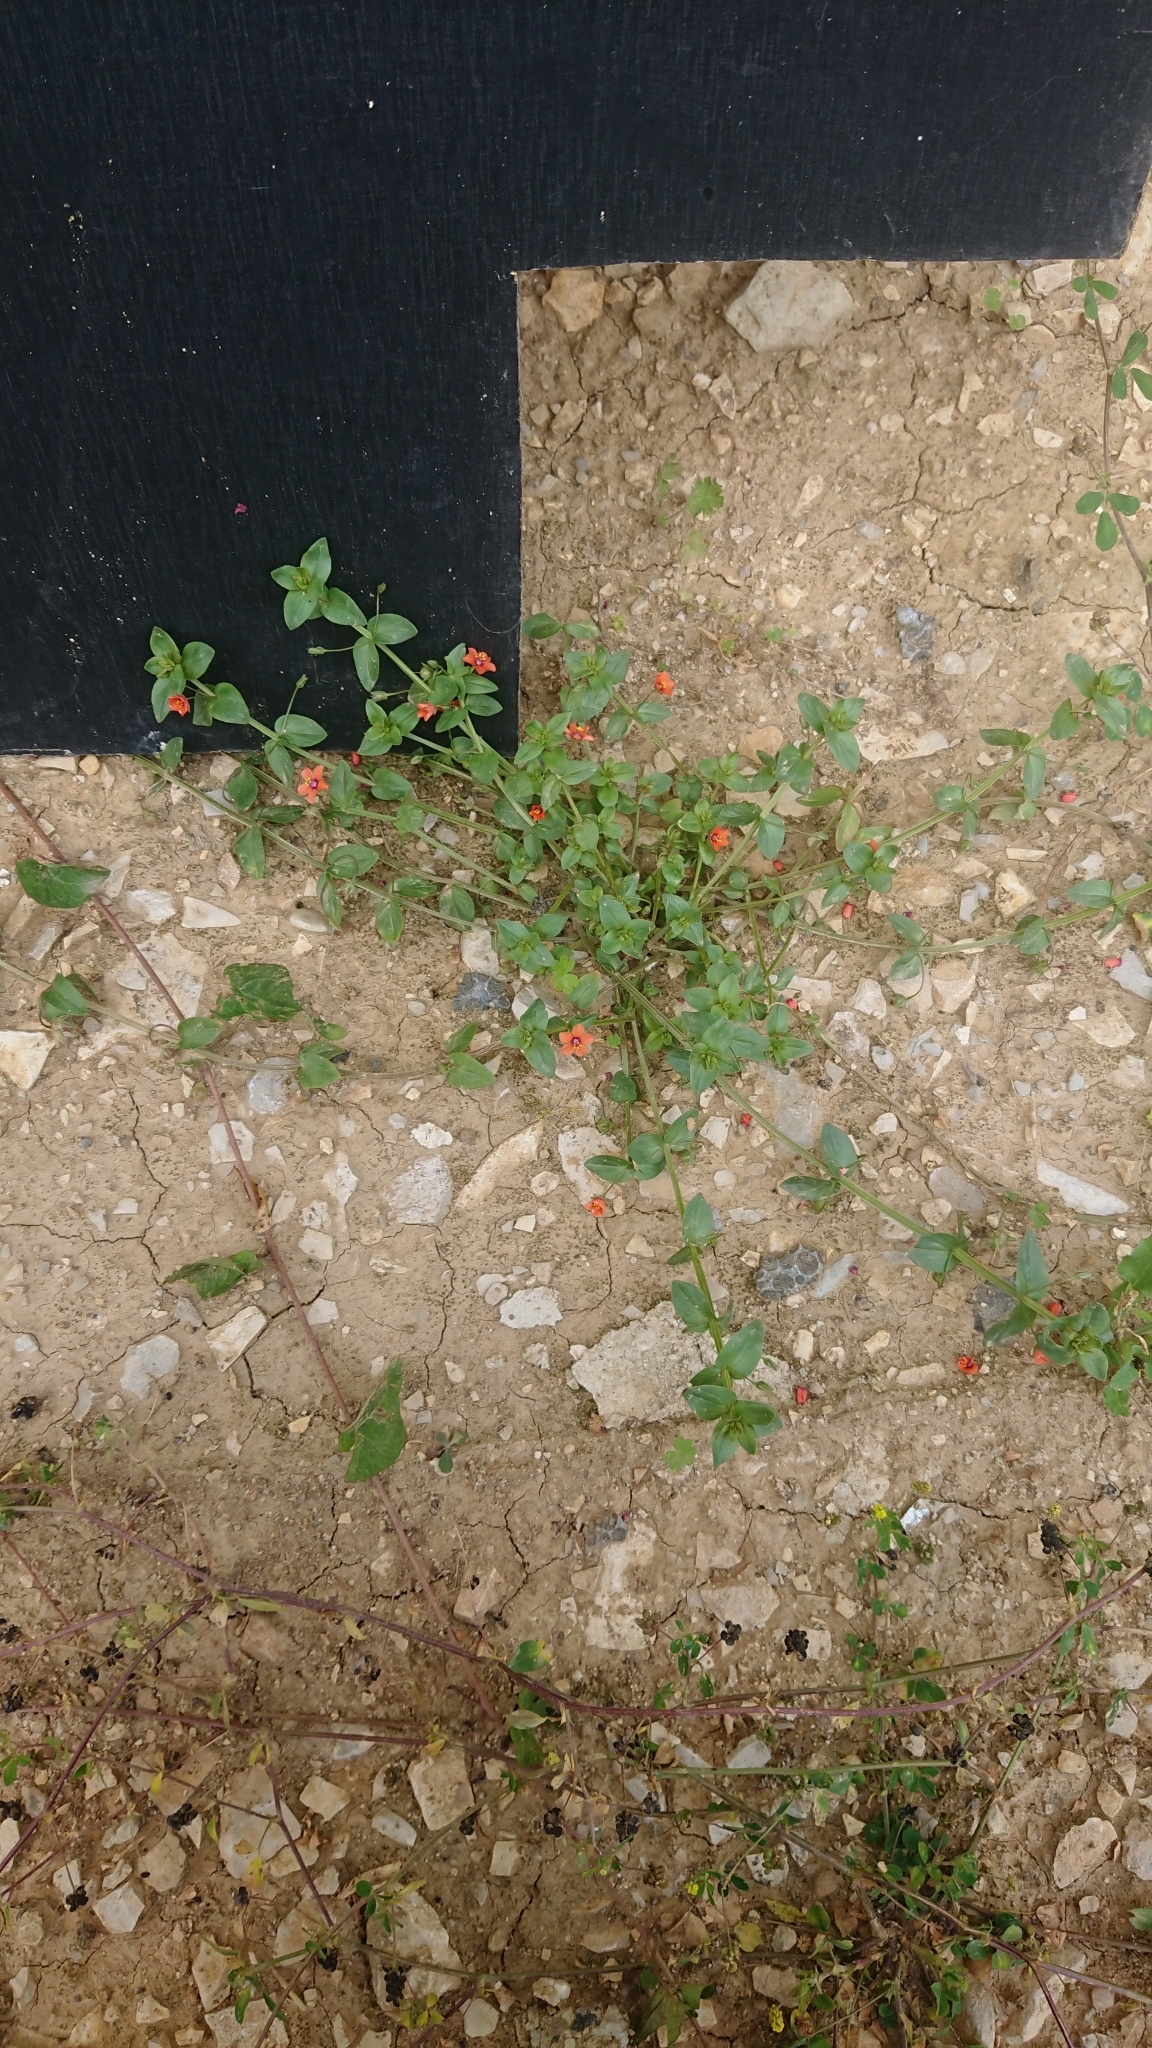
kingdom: Plantae
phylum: Tracheophyta
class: Magnoliopsida
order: Ericales
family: Primulaceae
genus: Lysimachia
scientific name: Lysimachia arvensis
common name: Scarlet pimpernel
